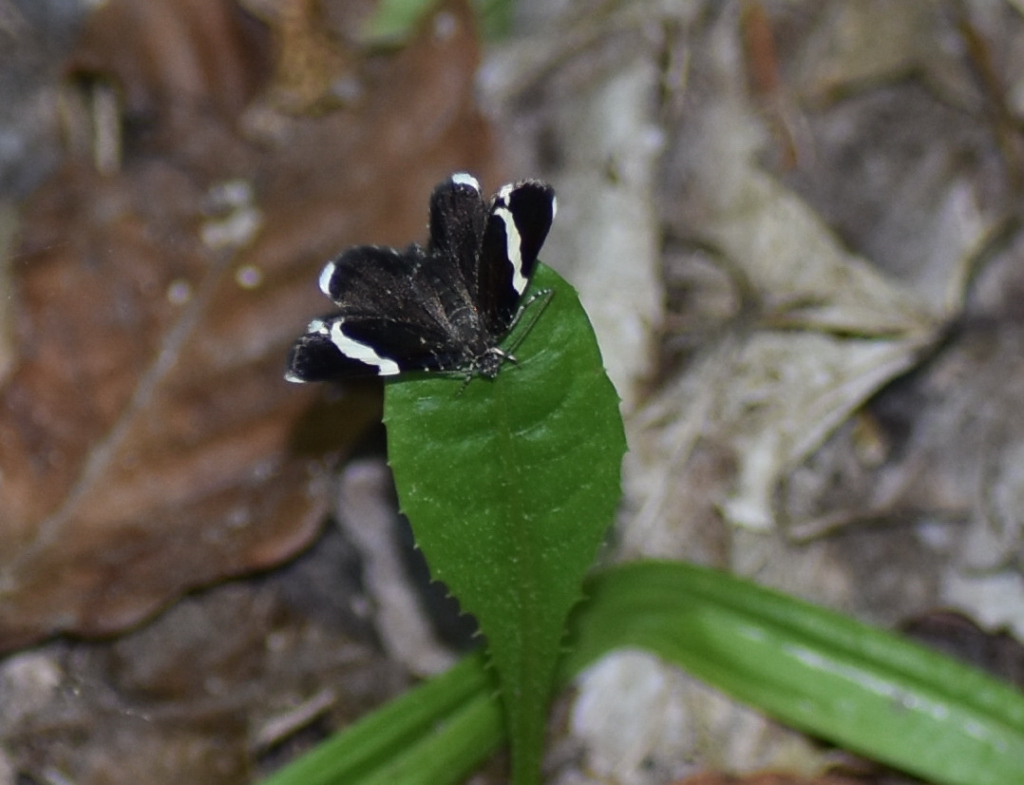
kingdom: Animalia
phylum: Arthropoda
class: Insecta
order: Lepidoptera
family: Geometridae
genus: Trichodezia
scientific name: Trichodezia albovittata
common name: White striped black
